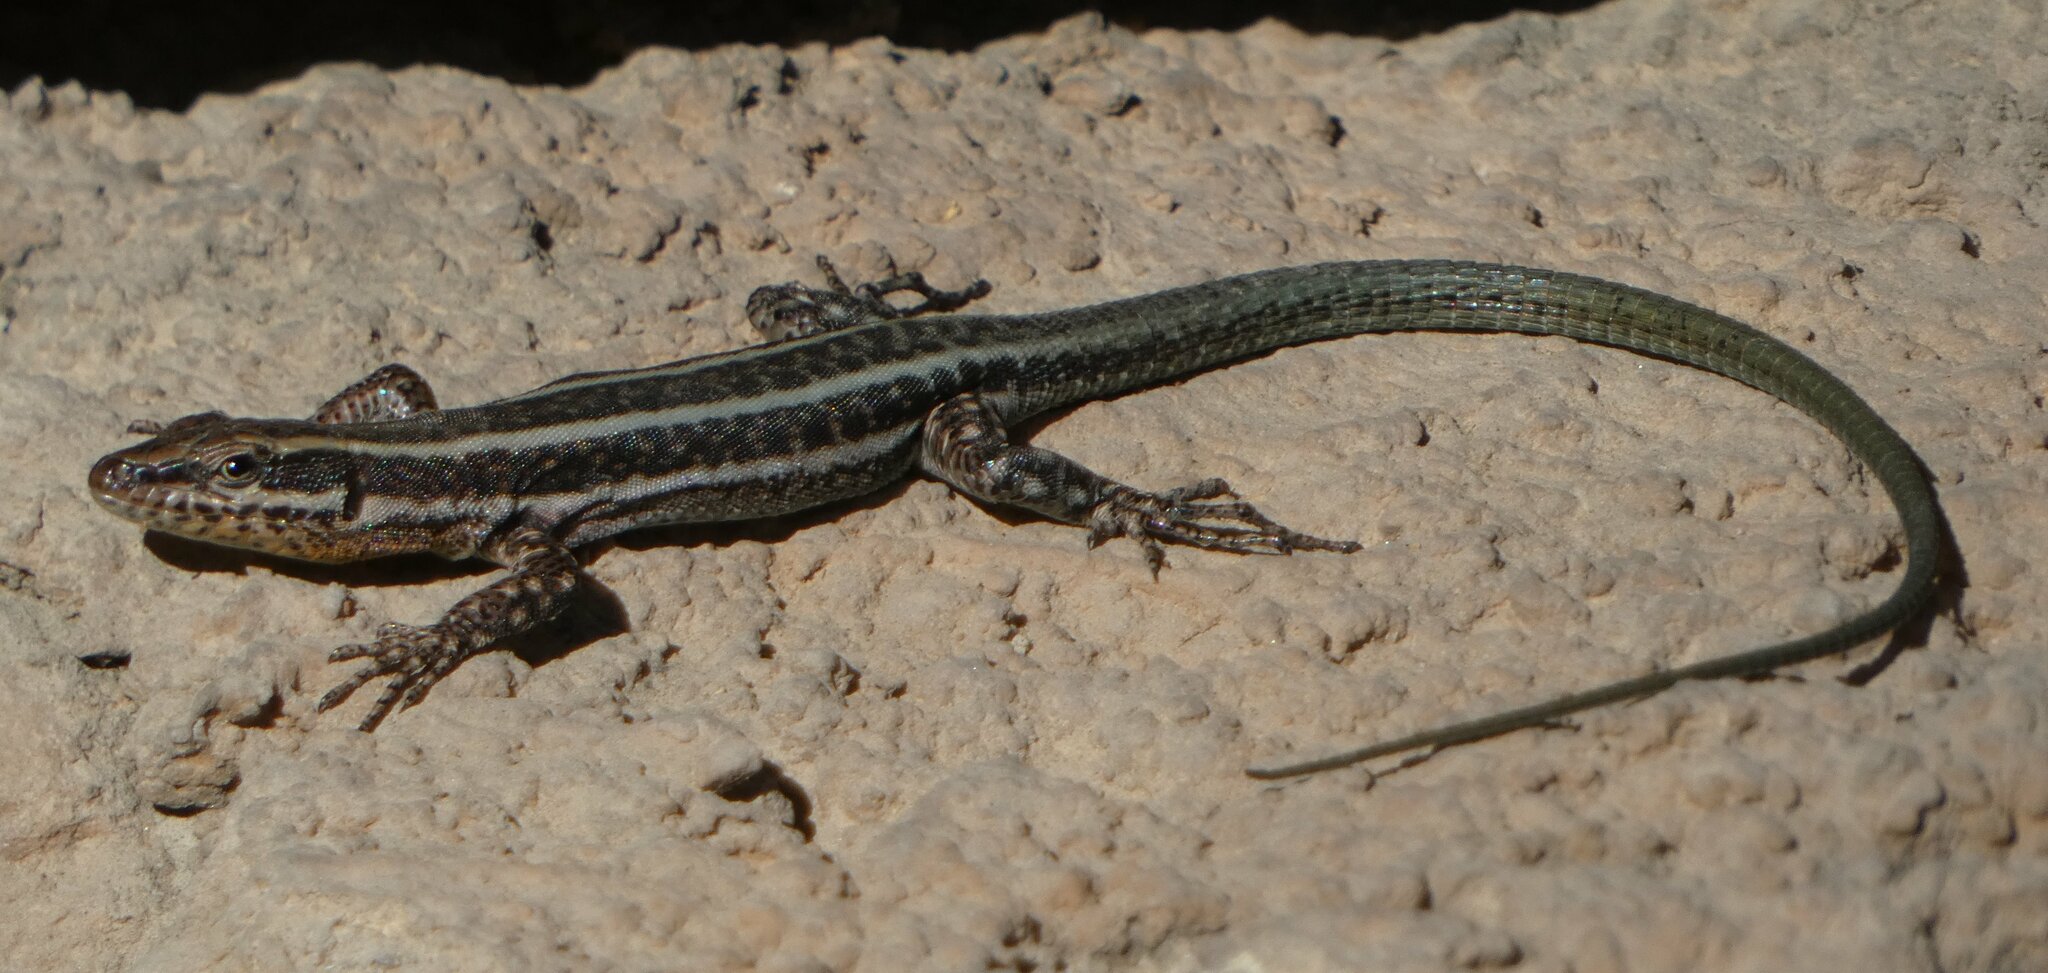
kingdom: Animalia
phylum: Chordata
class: Squamata
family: Lacertidae
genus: Anatololacerta
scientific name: Anatololacerta finikensis
